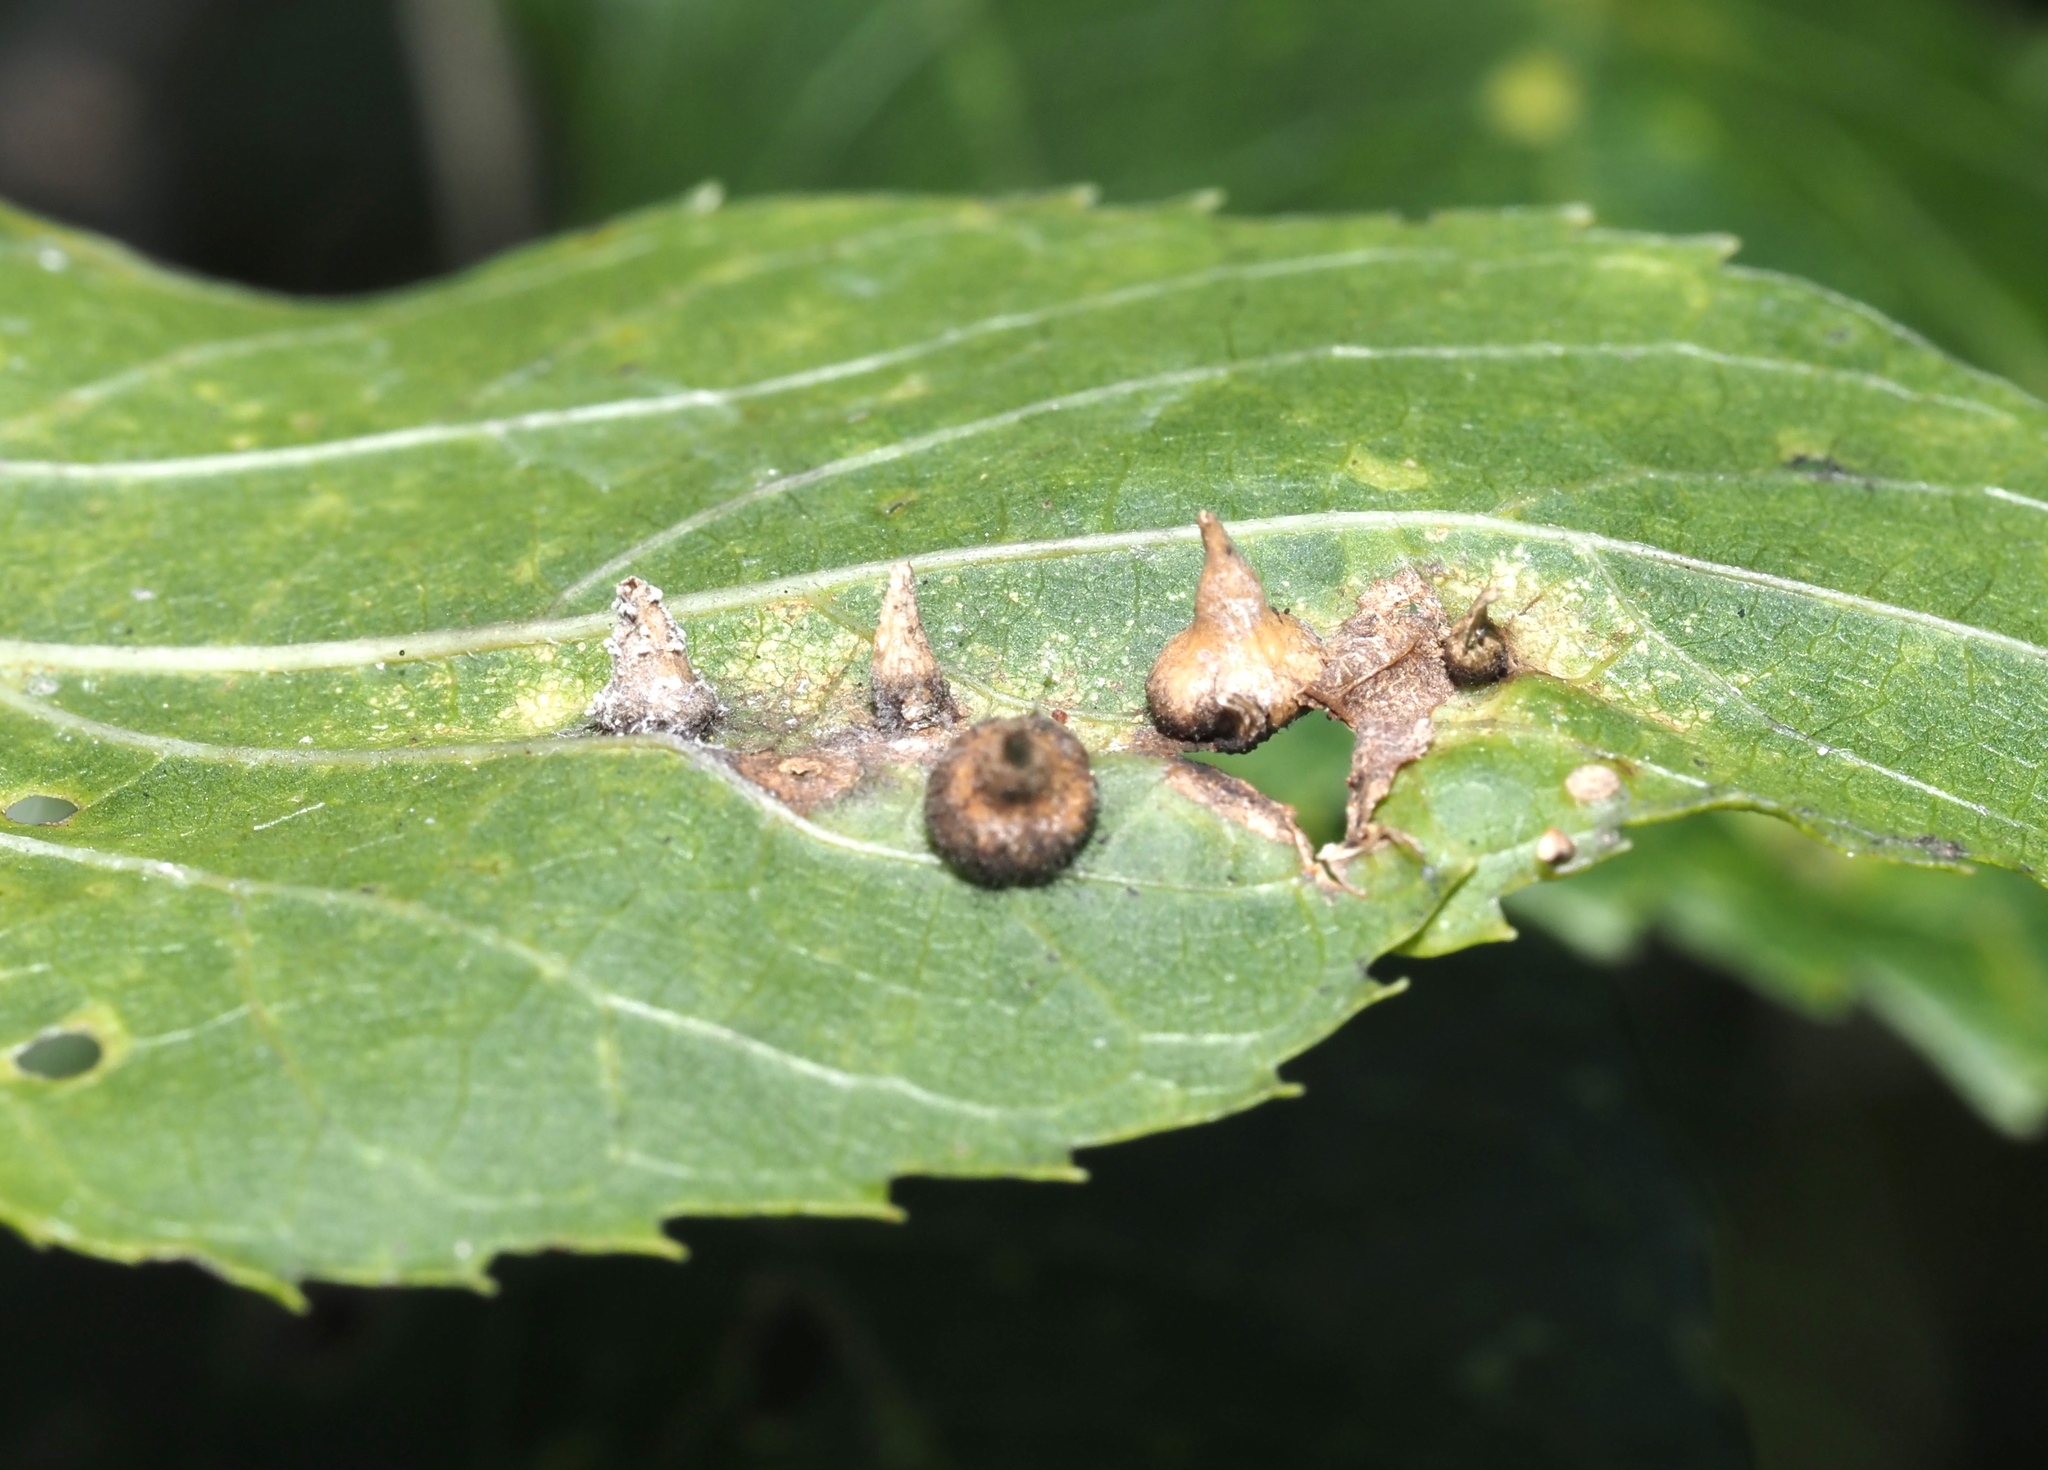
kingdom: Animalia
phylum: Arthropoda
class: Insecta
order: Diptera
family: Cecidomyiidae
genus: Celticecis
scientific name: Celticecis spiniformis
